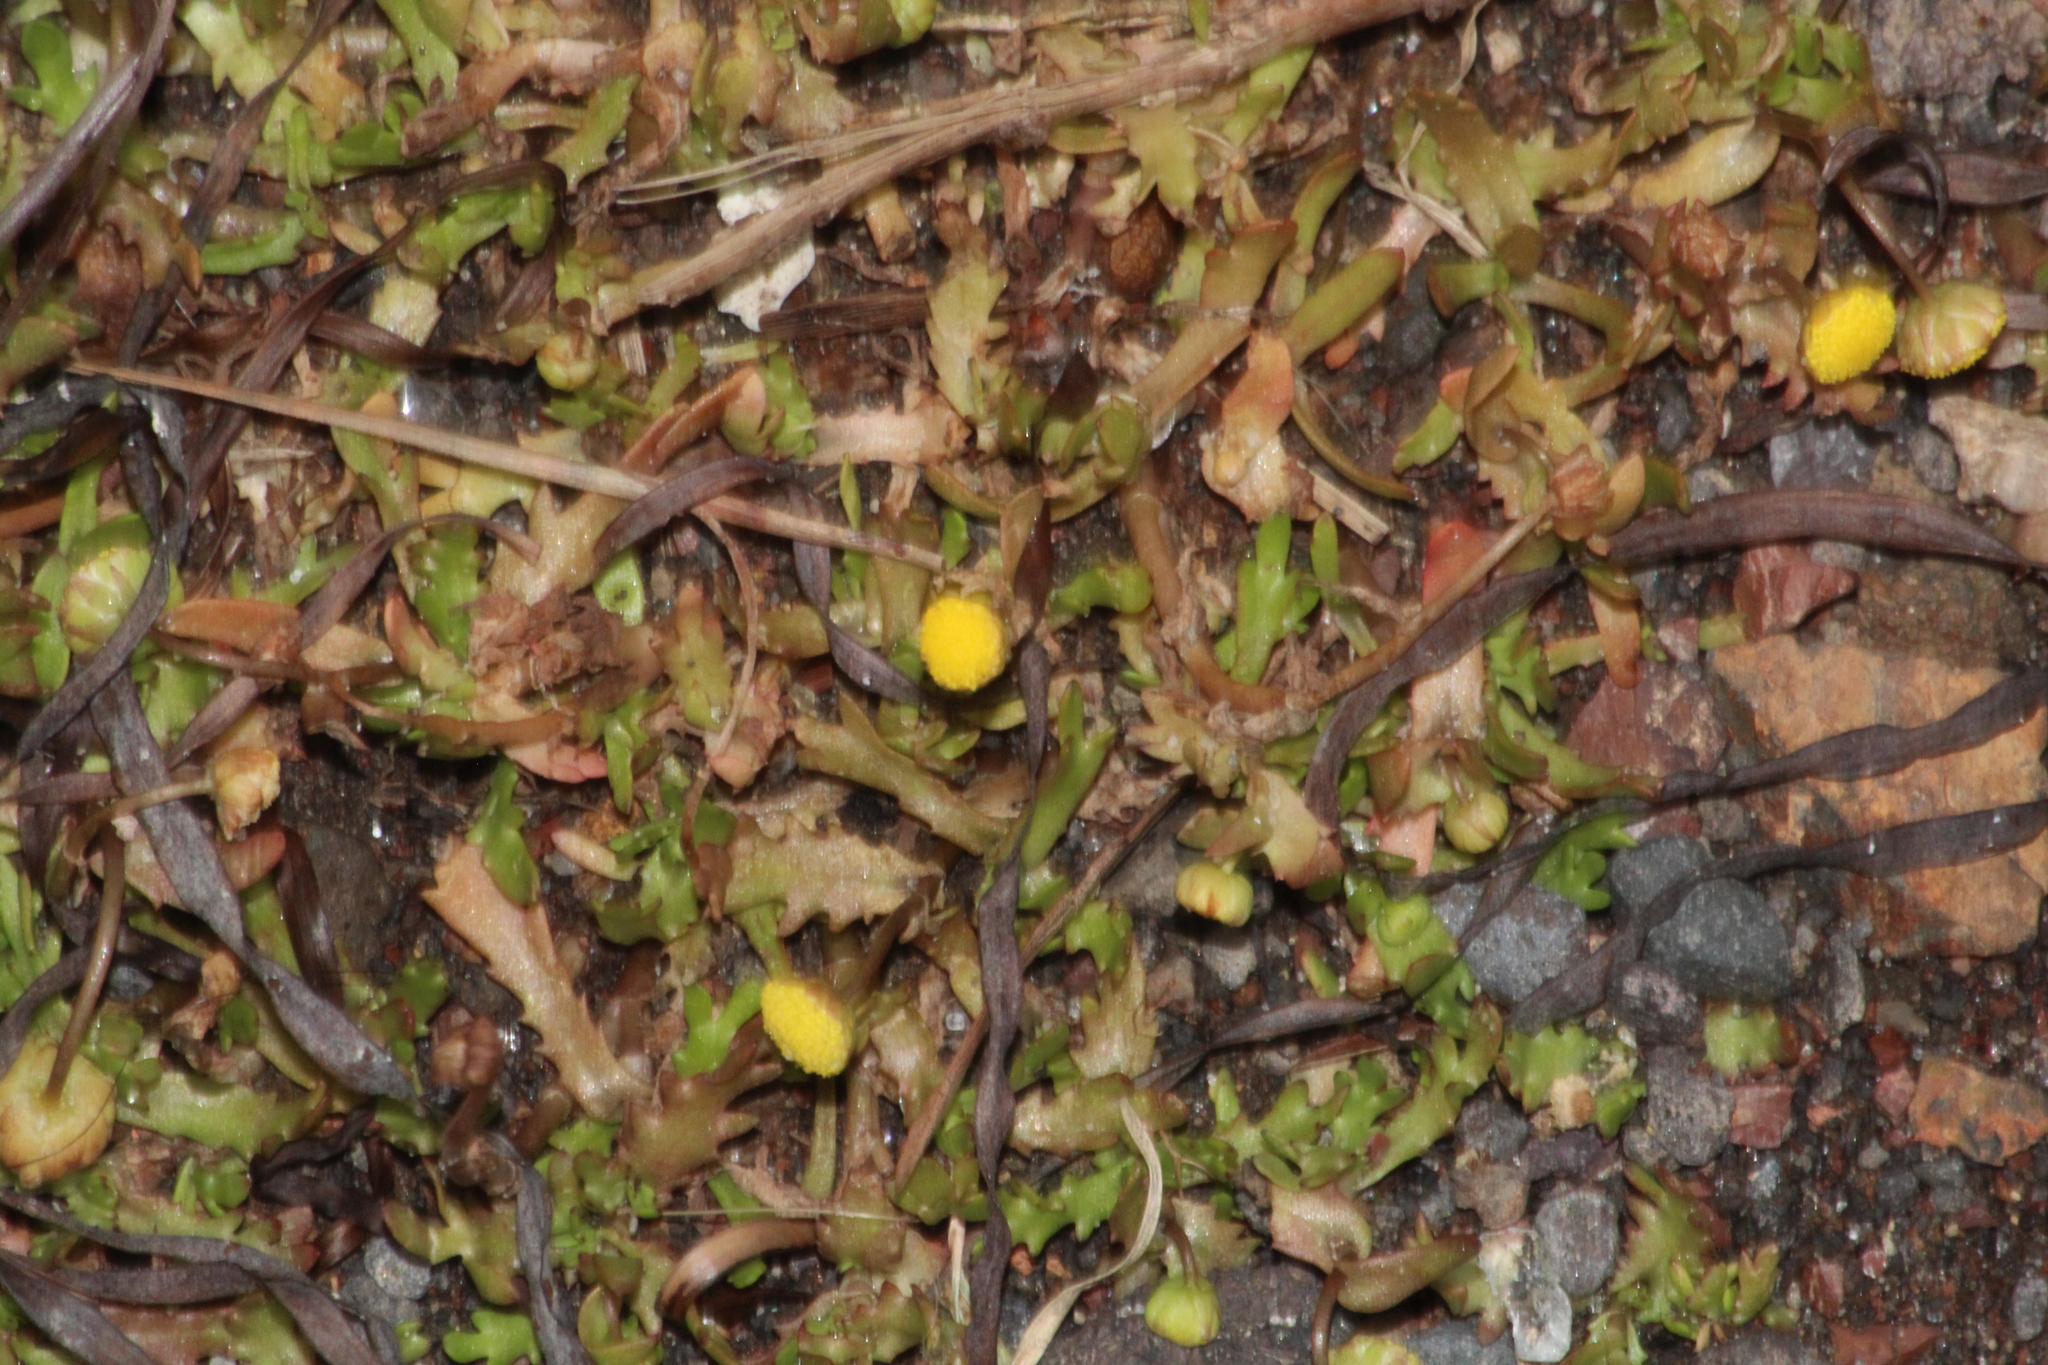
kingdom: Plantae
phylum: Tracheophyta
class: Magnoliopsida
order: Asterales
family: Asteraceae
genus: Cotula
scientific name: Cotula coronopifolia
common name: Buttonweed
